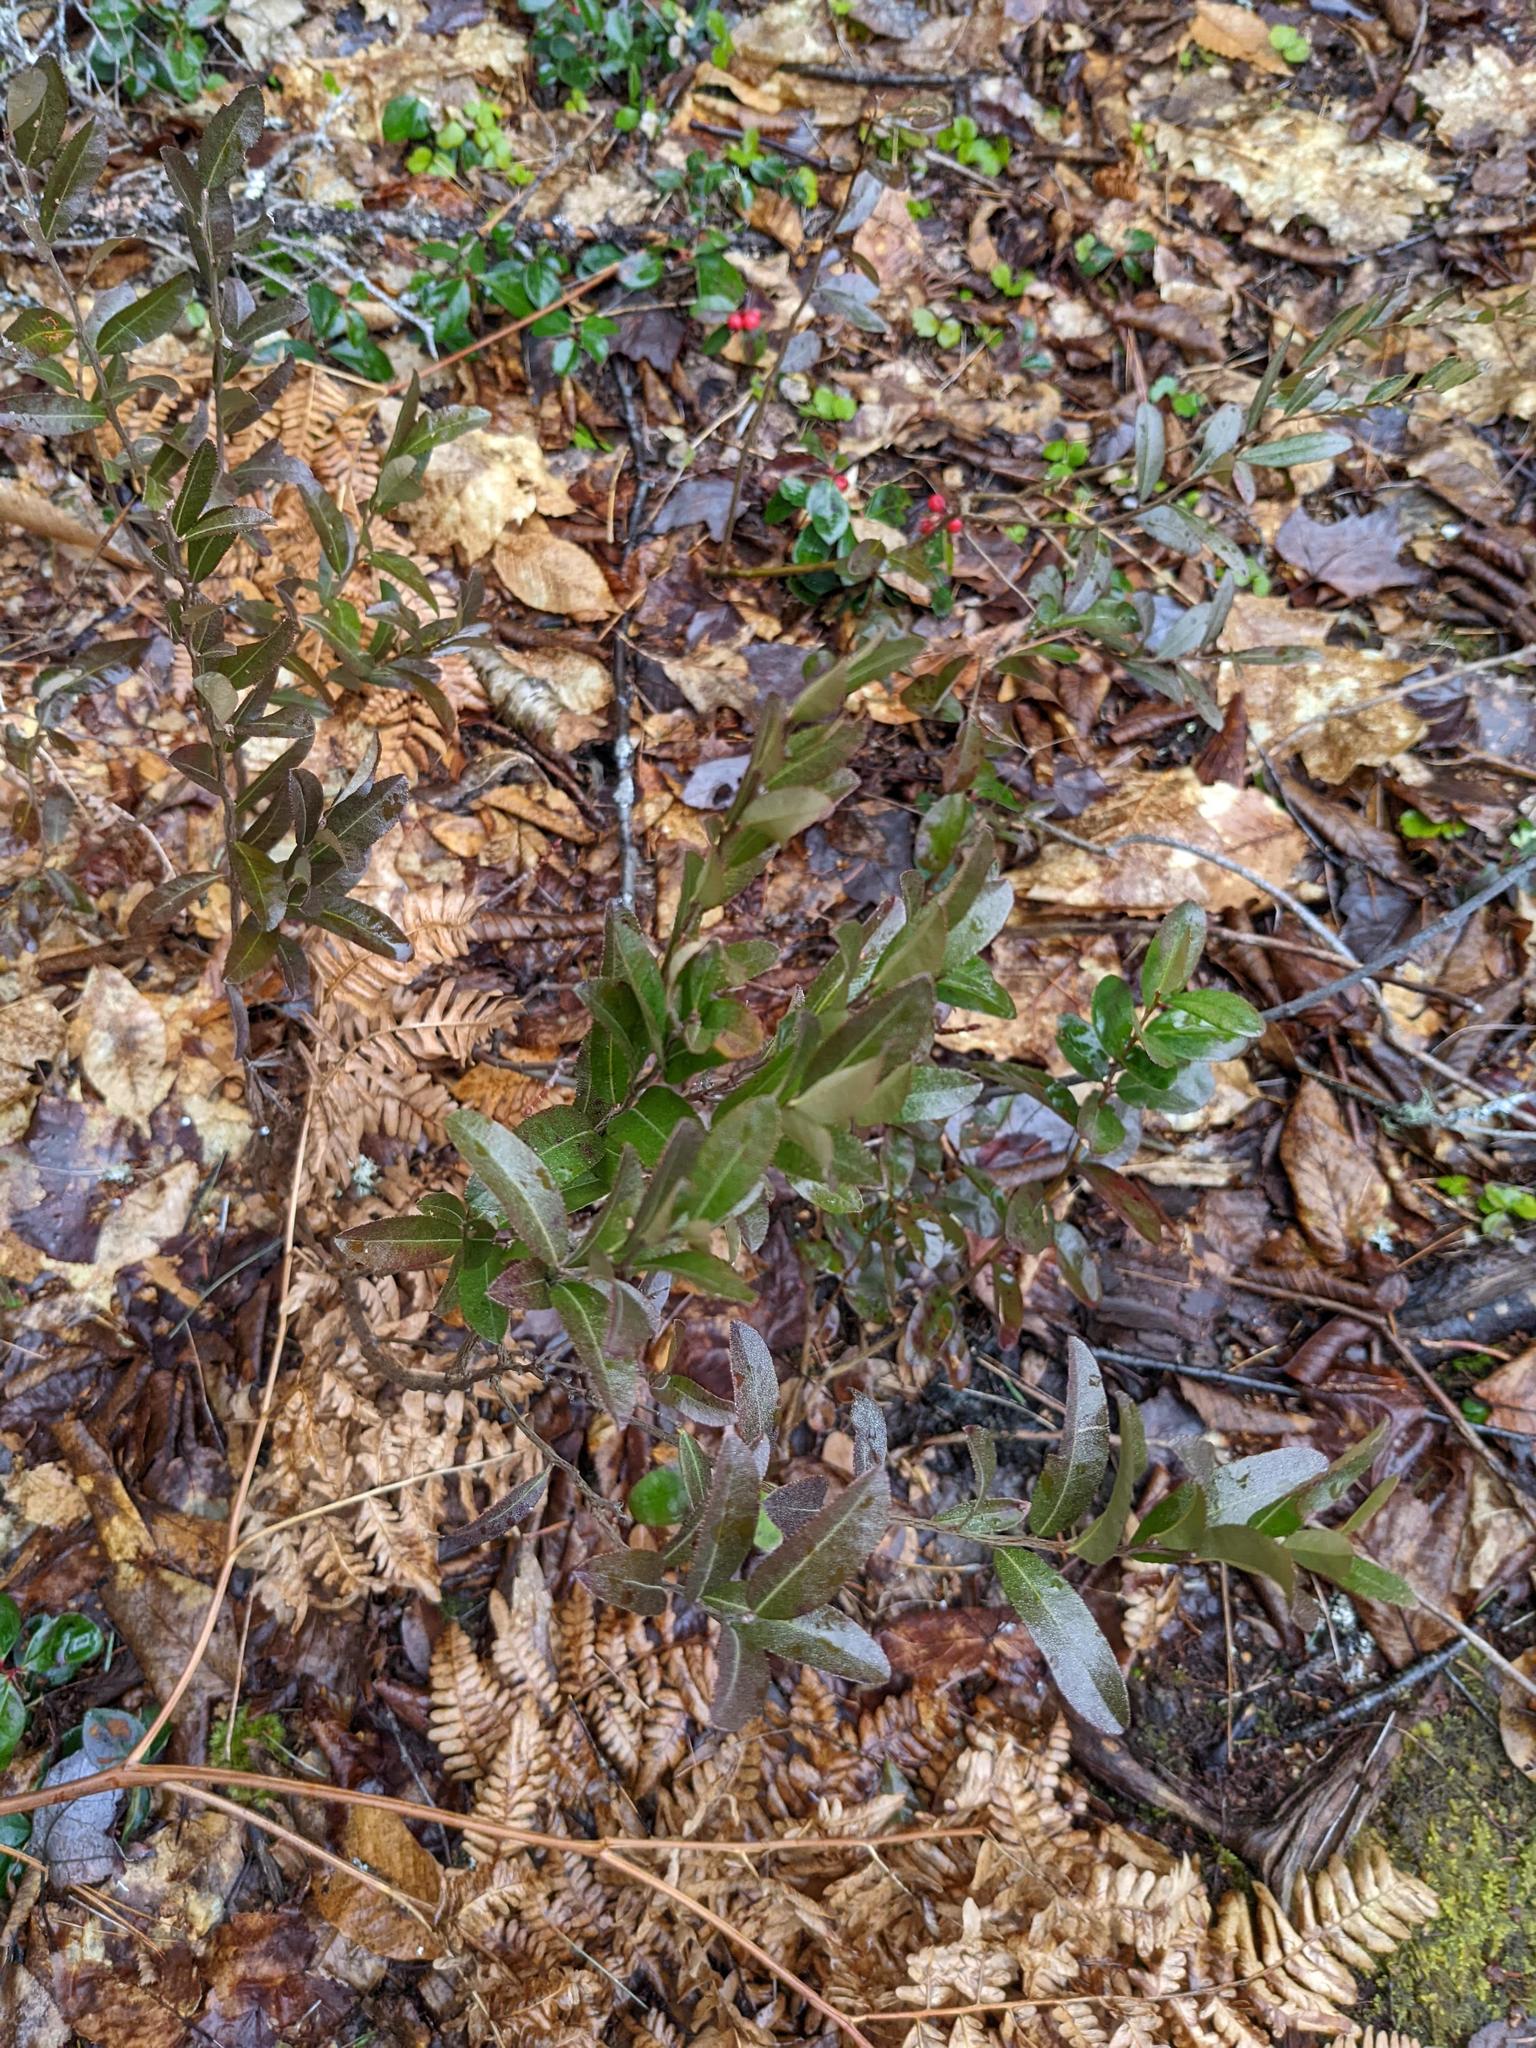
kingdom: Plantae
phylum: Tracheophyta
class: Magnoliopsida
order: Ericales
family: Ericaceae
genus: Chamaedaphne
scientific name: Chamaedaphne calyculata
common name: Leatherleaf
